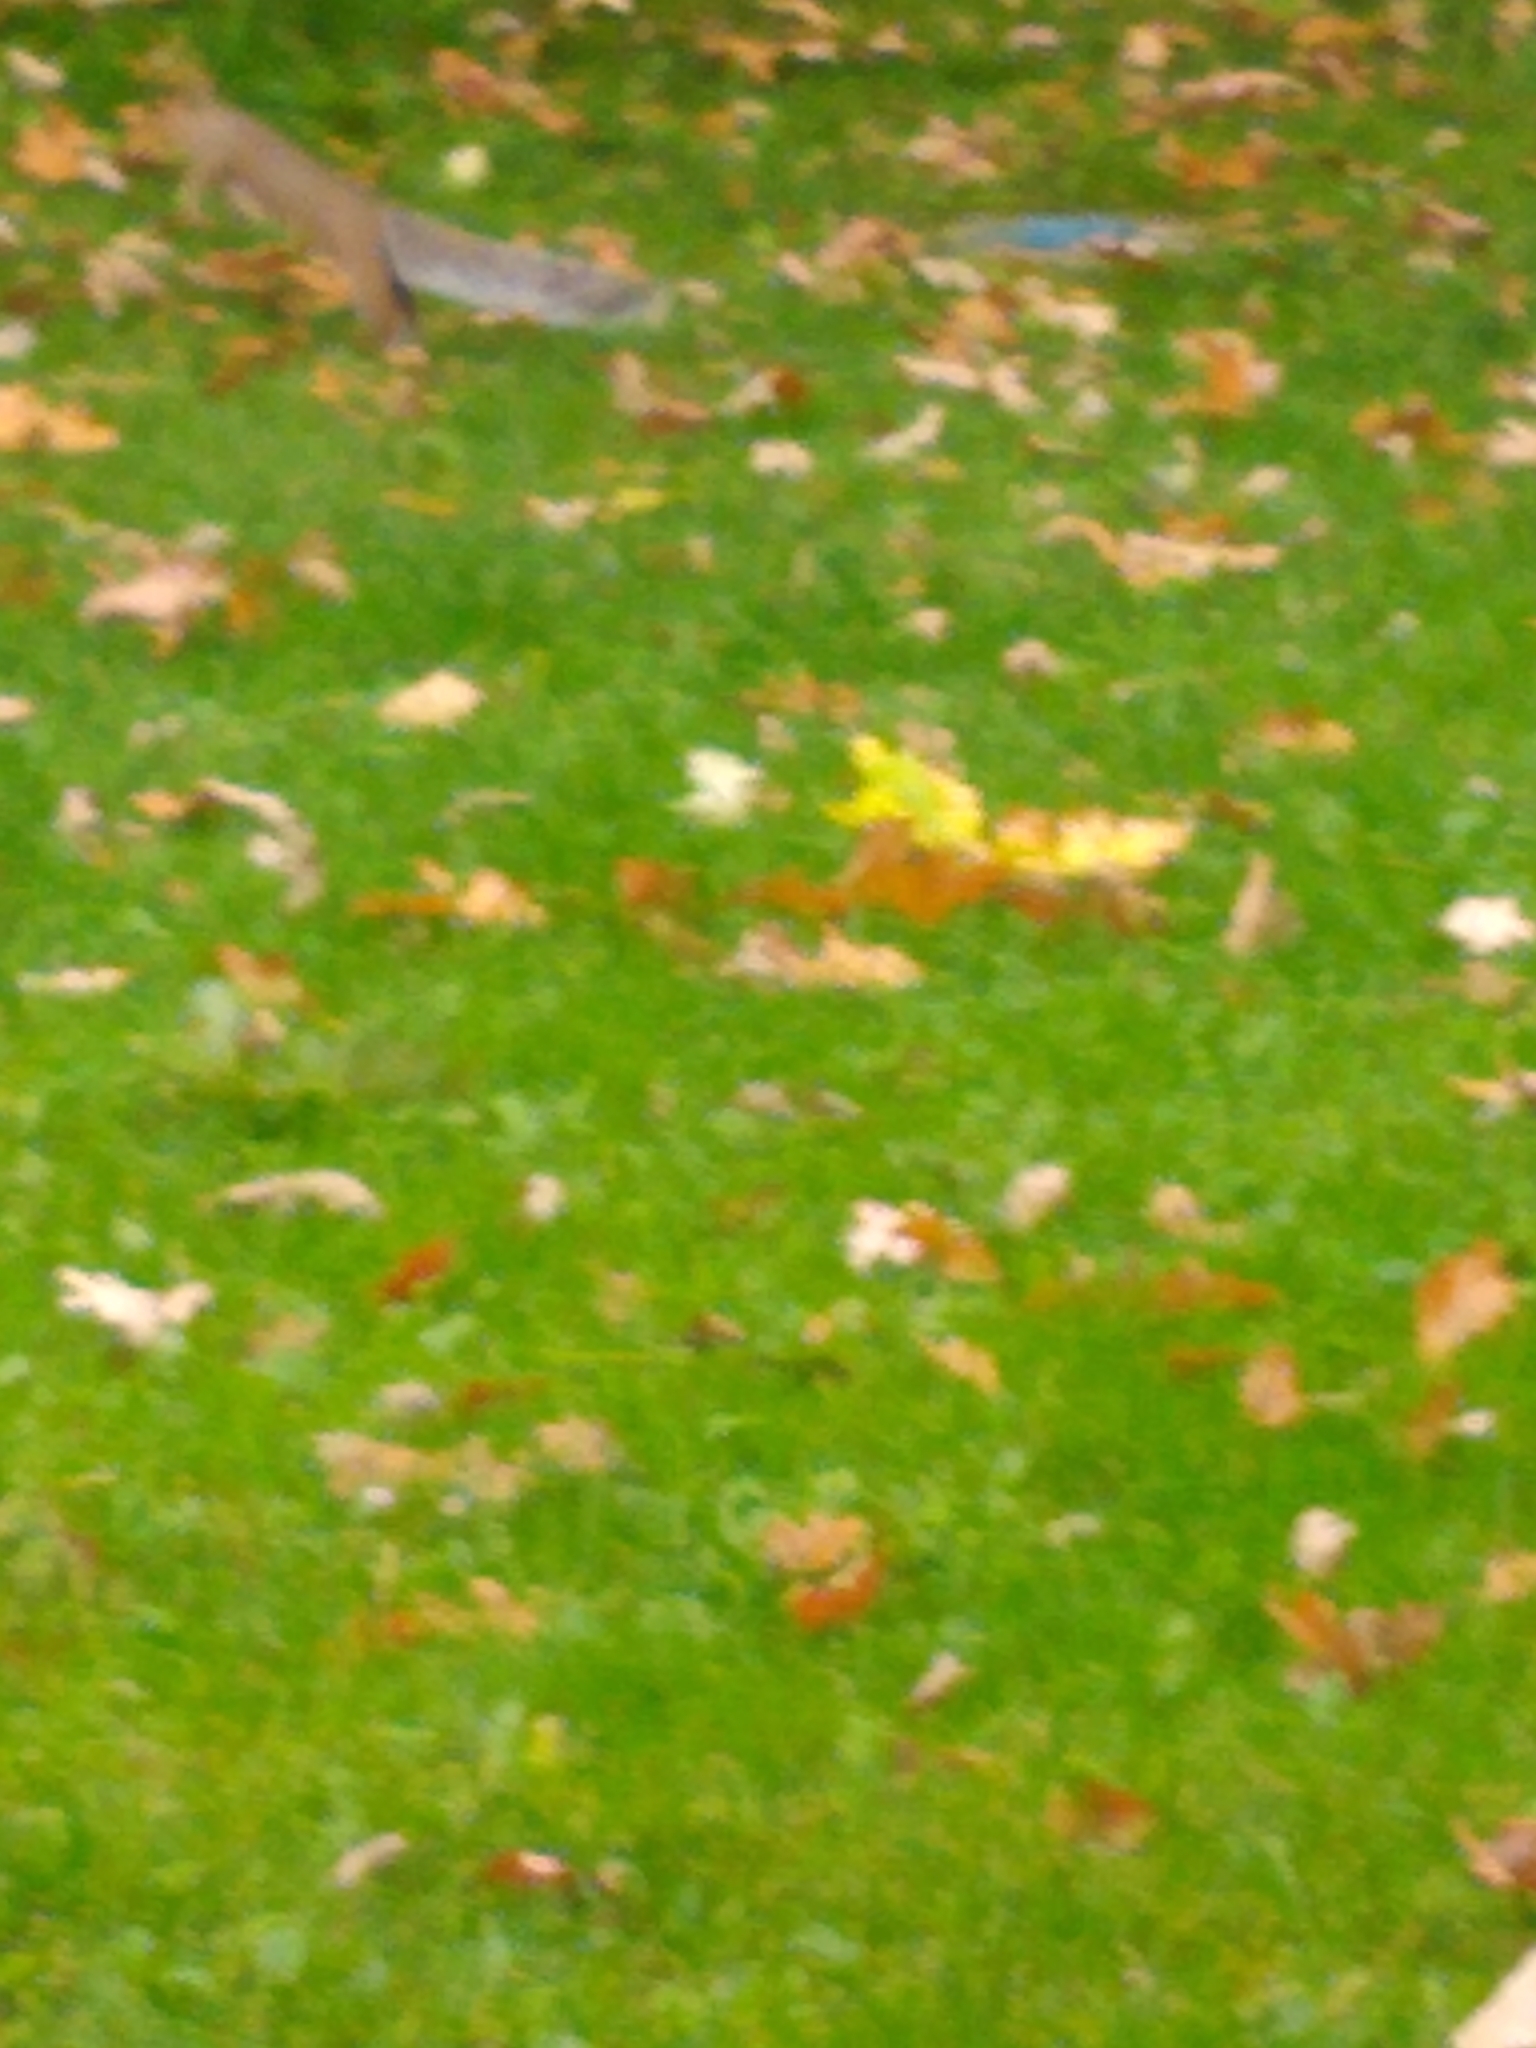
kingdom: Animalia
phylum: Chordata
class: Mammalia
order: Rodentia
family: Sciuridae
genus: Sciurus
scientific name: Sciurus carolinensis
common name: Eastern gray squirrel
